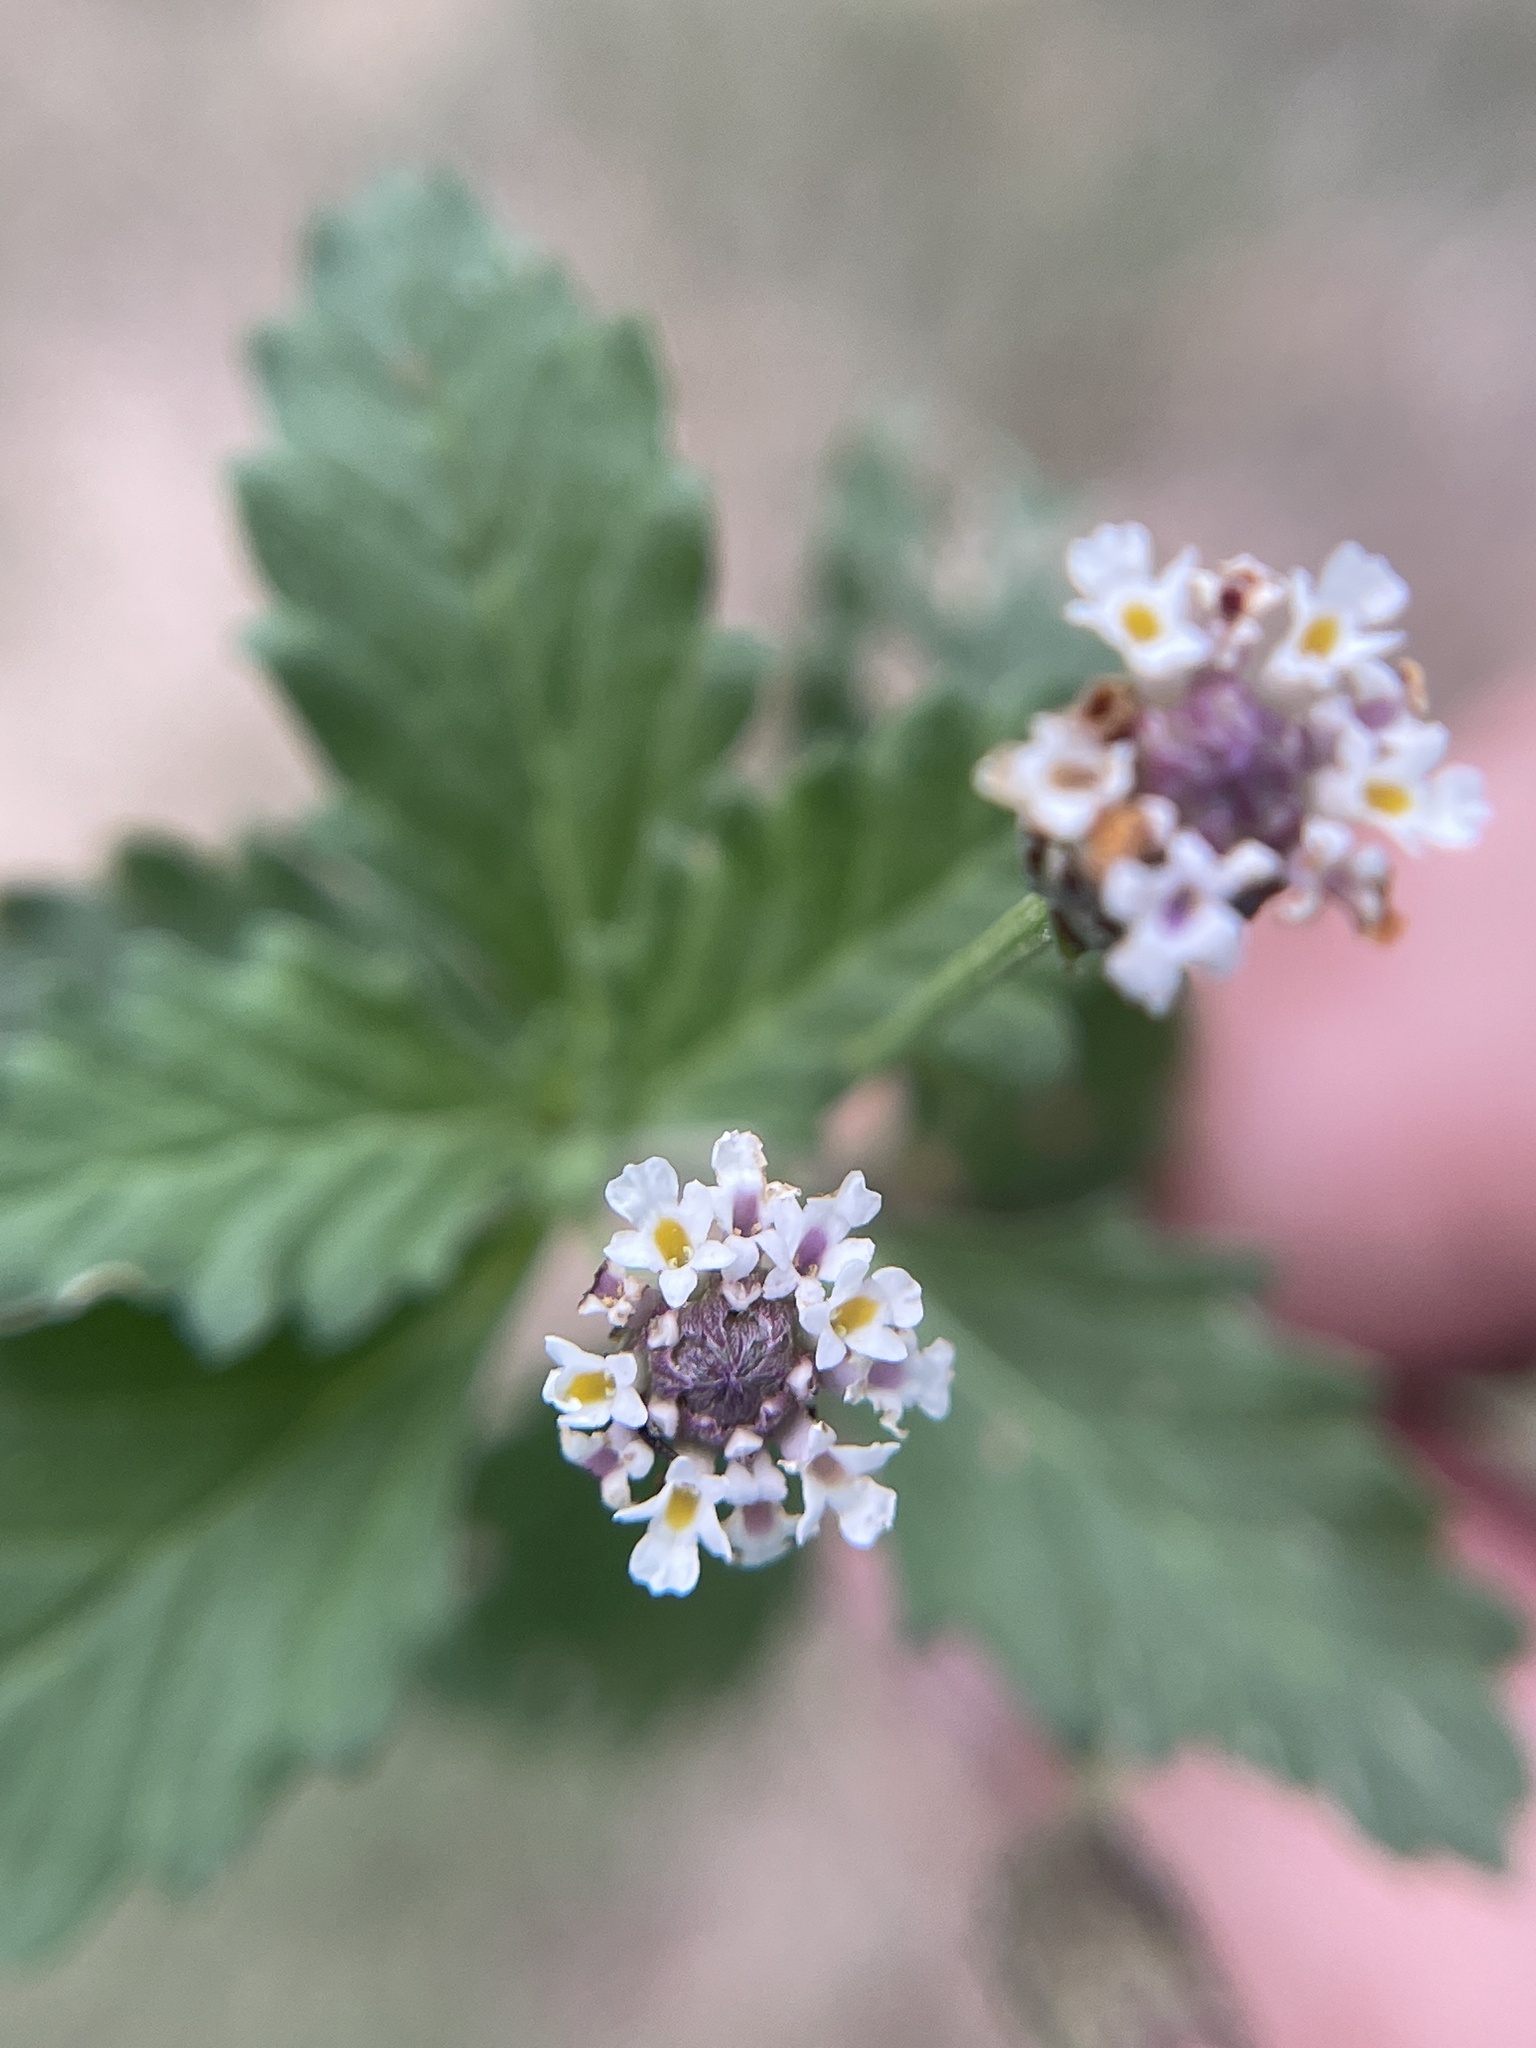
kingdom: Plantae
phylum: Tracheophyta
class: Magnoliopsida
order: Lamiales
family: Verbenaceae
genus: Phyla
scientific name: Phyla lanceolata
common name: Northern fogfruit
